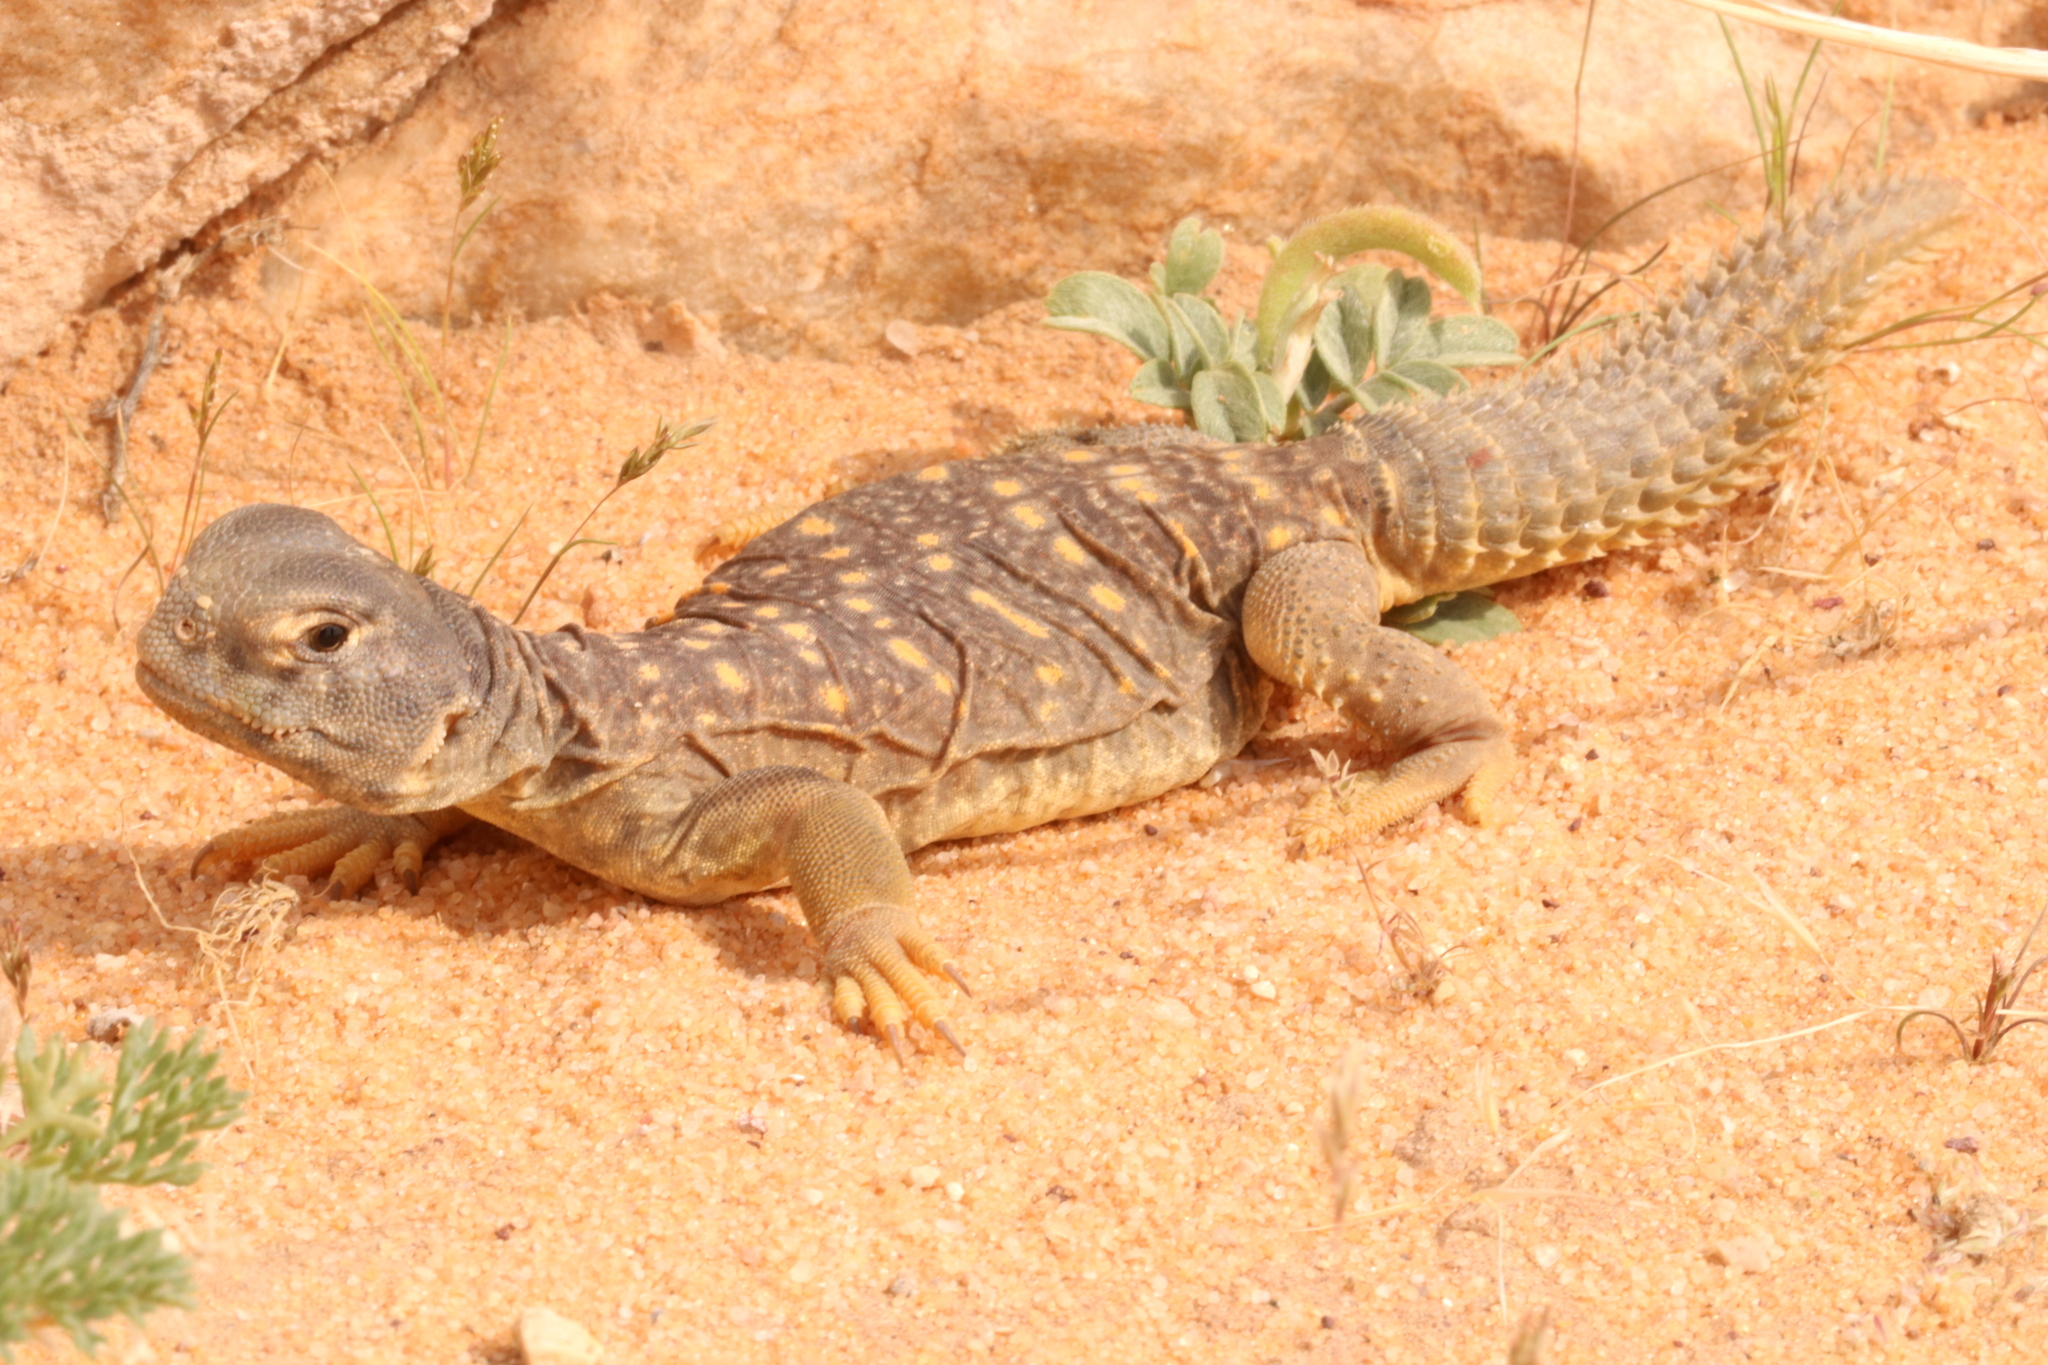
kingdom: Animalia
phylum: Chordata
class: Squamata
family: Agamidae
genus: Uromastyx
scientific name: Uromastyx aegyptia
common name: Egyptian mastigure
